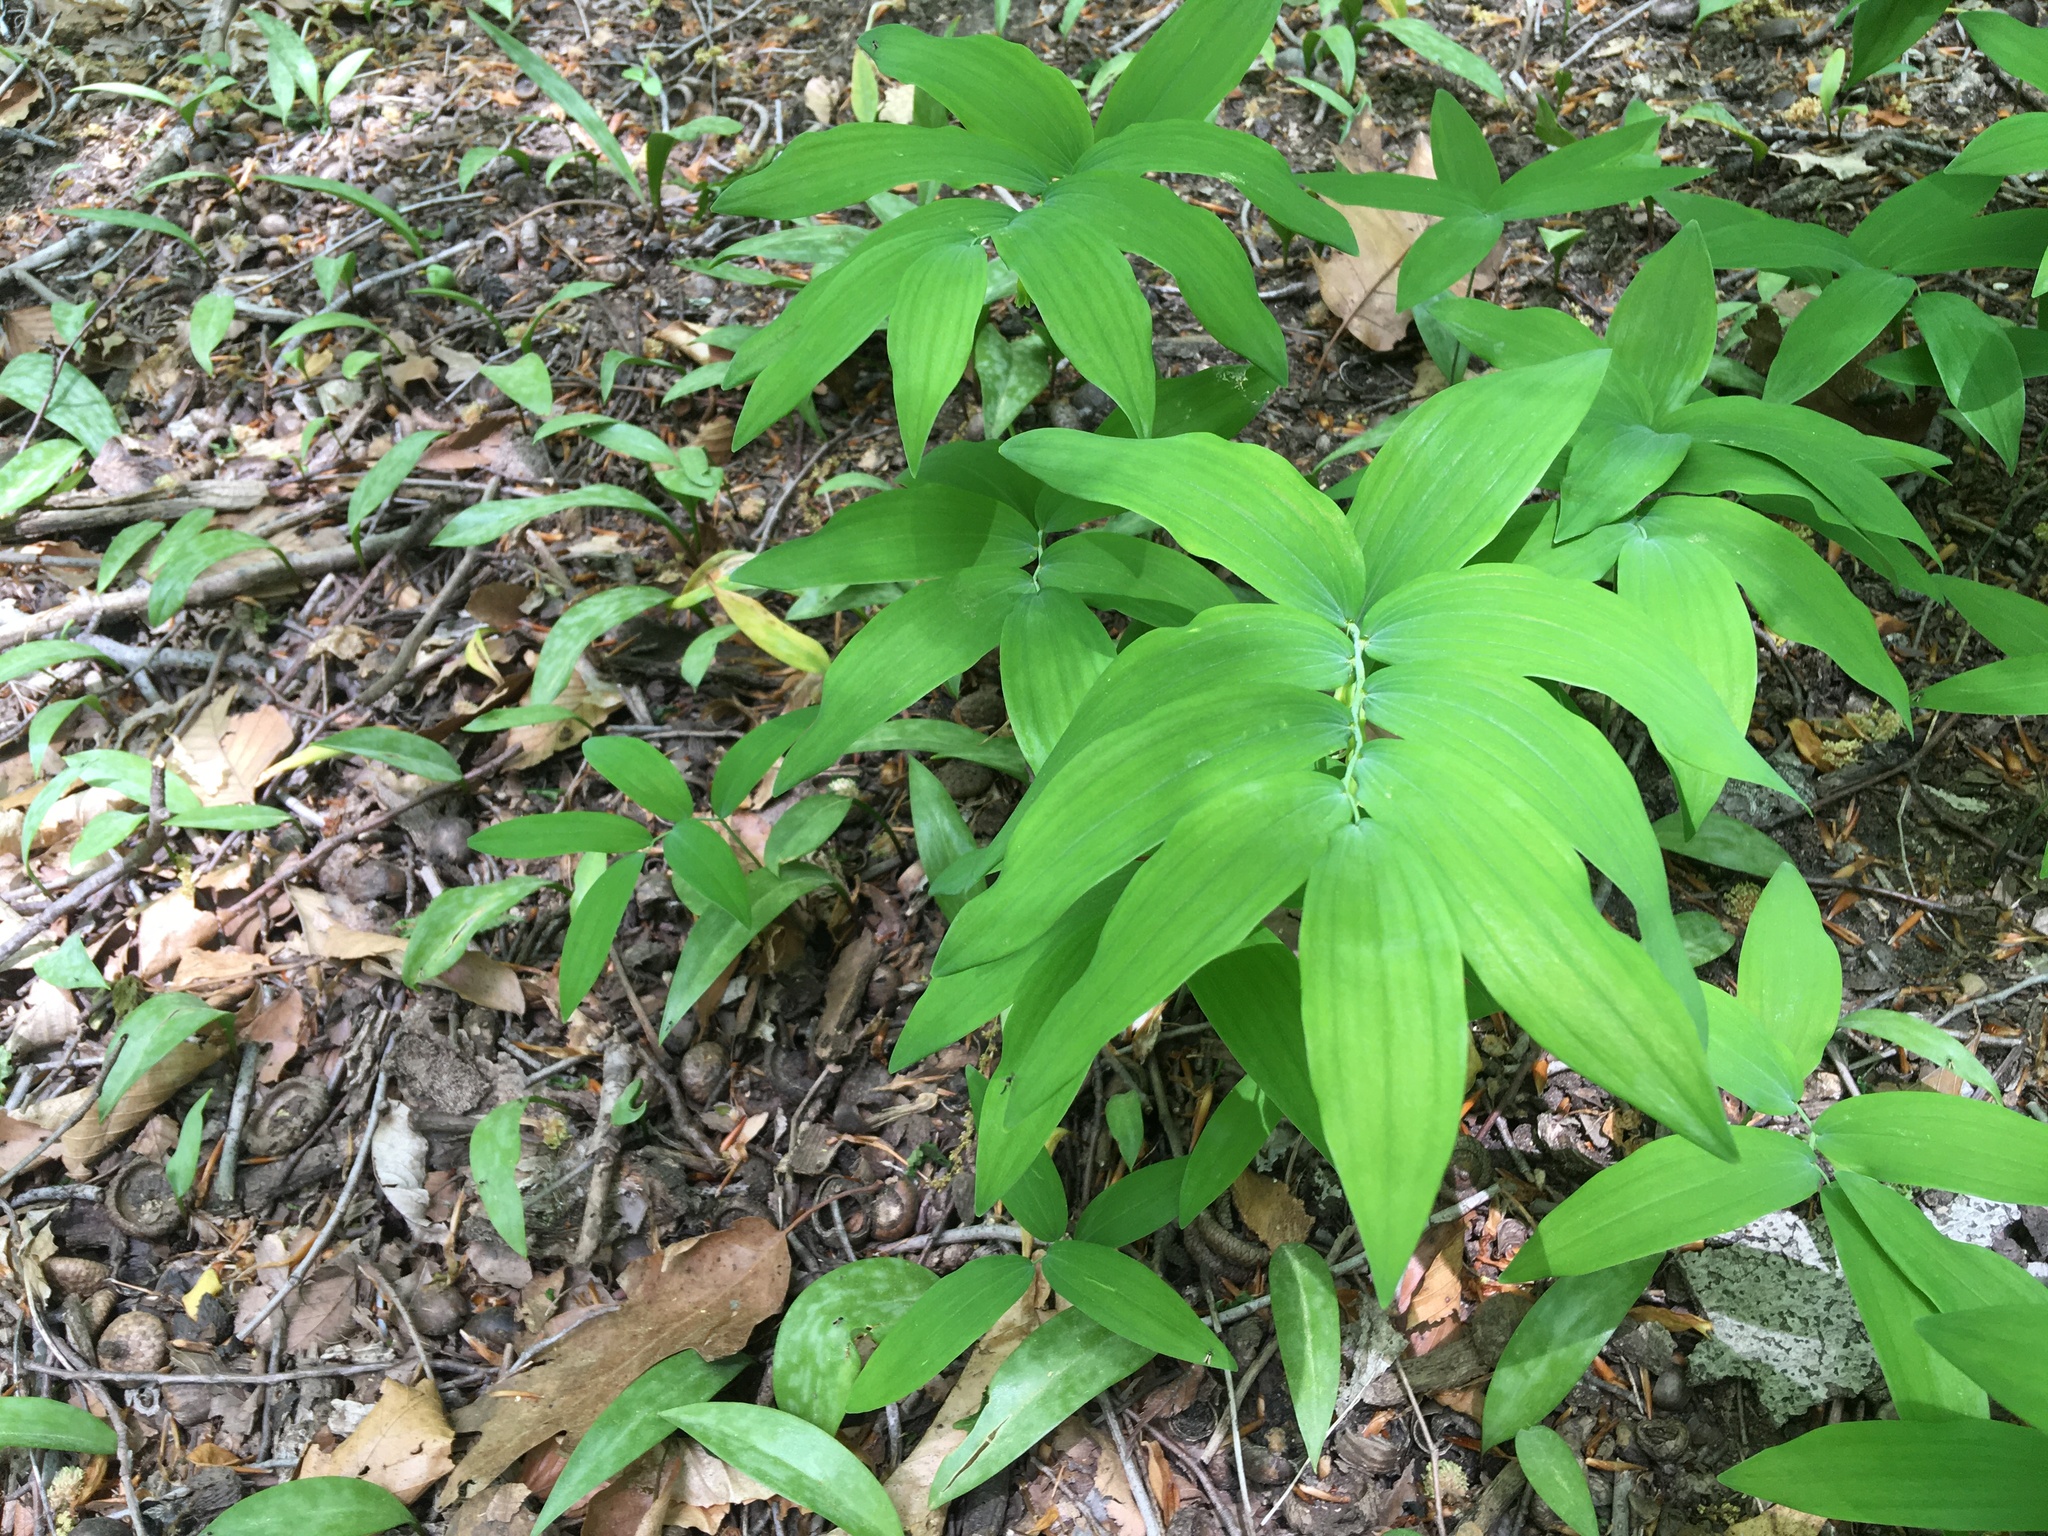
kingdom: Plantae
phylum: Tracheophyta
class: Liliopsida
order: Asparagales
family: Asparagaceae
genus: Polygonatum
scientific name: Polygonatum pubescens
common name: Downy solomon's seal
